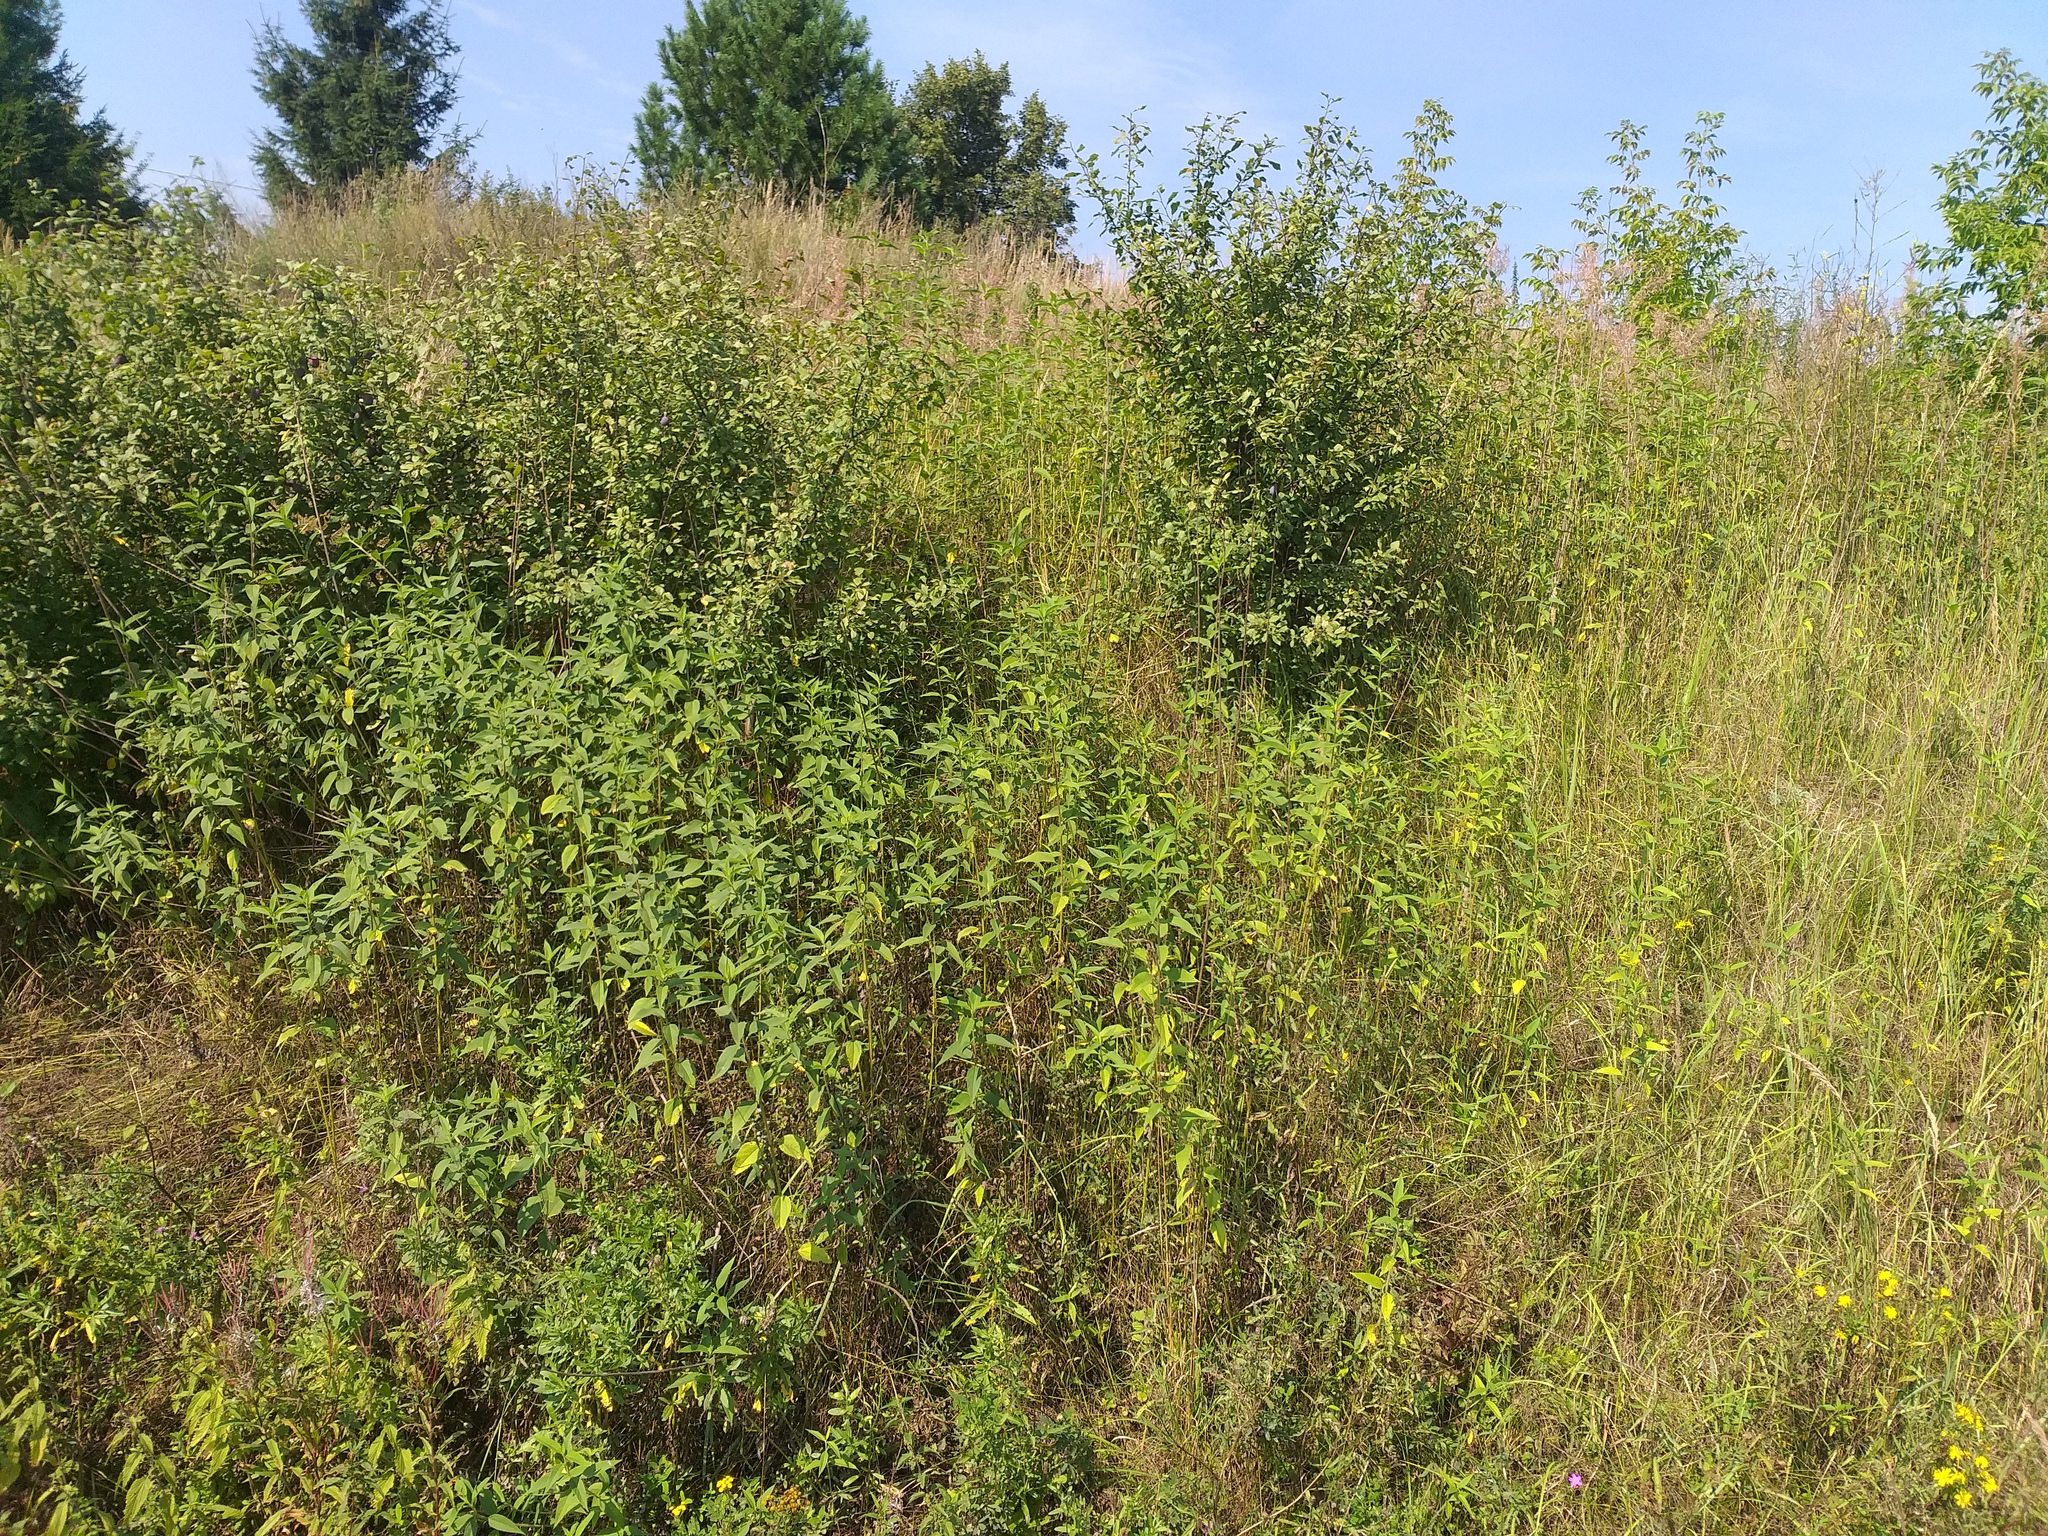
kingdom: Plantae
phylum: Tracheophyta
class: Magnoliopsida
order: Asterales
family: Asteraceae
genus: Helianthus
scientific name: Helianthus tuberosus
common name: Jerusalem artichoke
